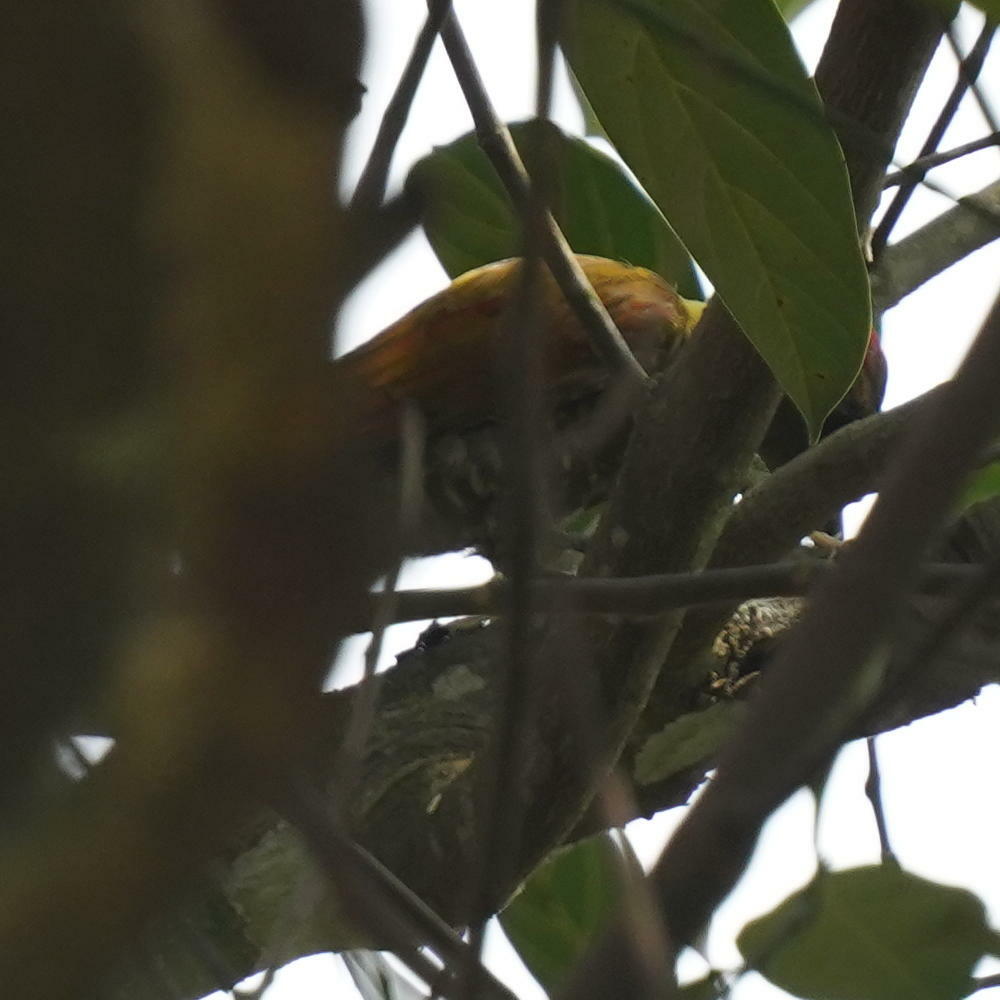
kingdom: Animalia
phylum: Chordata
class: Aves
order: Piciformes
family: Picidae
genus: Picus
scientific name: Picus chlorolophus
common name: Lesser yellownape
